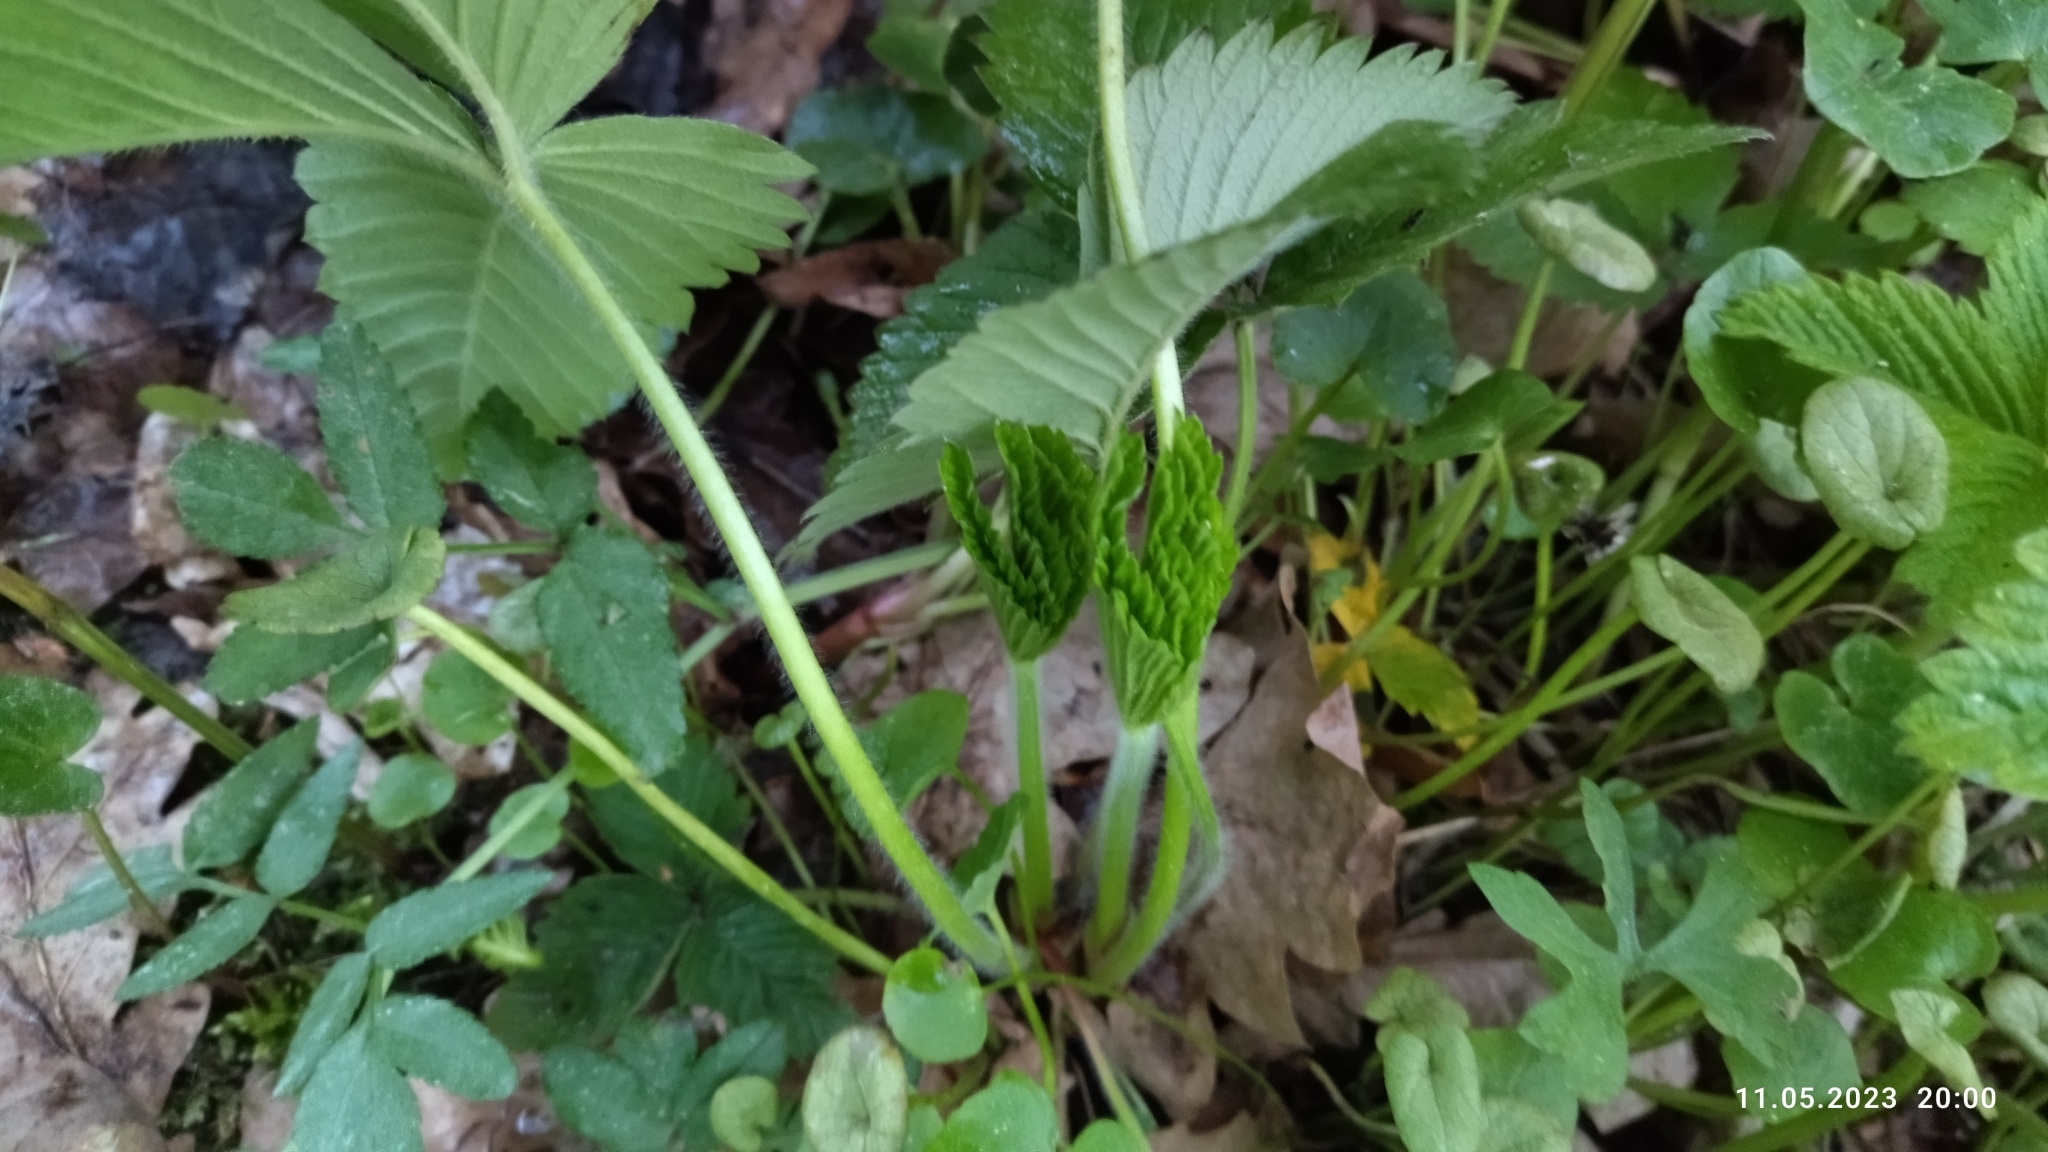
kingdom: Plantae
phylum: Tracheophyta
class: Magnoliopsida
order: Rosales
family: Rosaceae
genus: Fragaria
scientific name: Fragaria moschata
